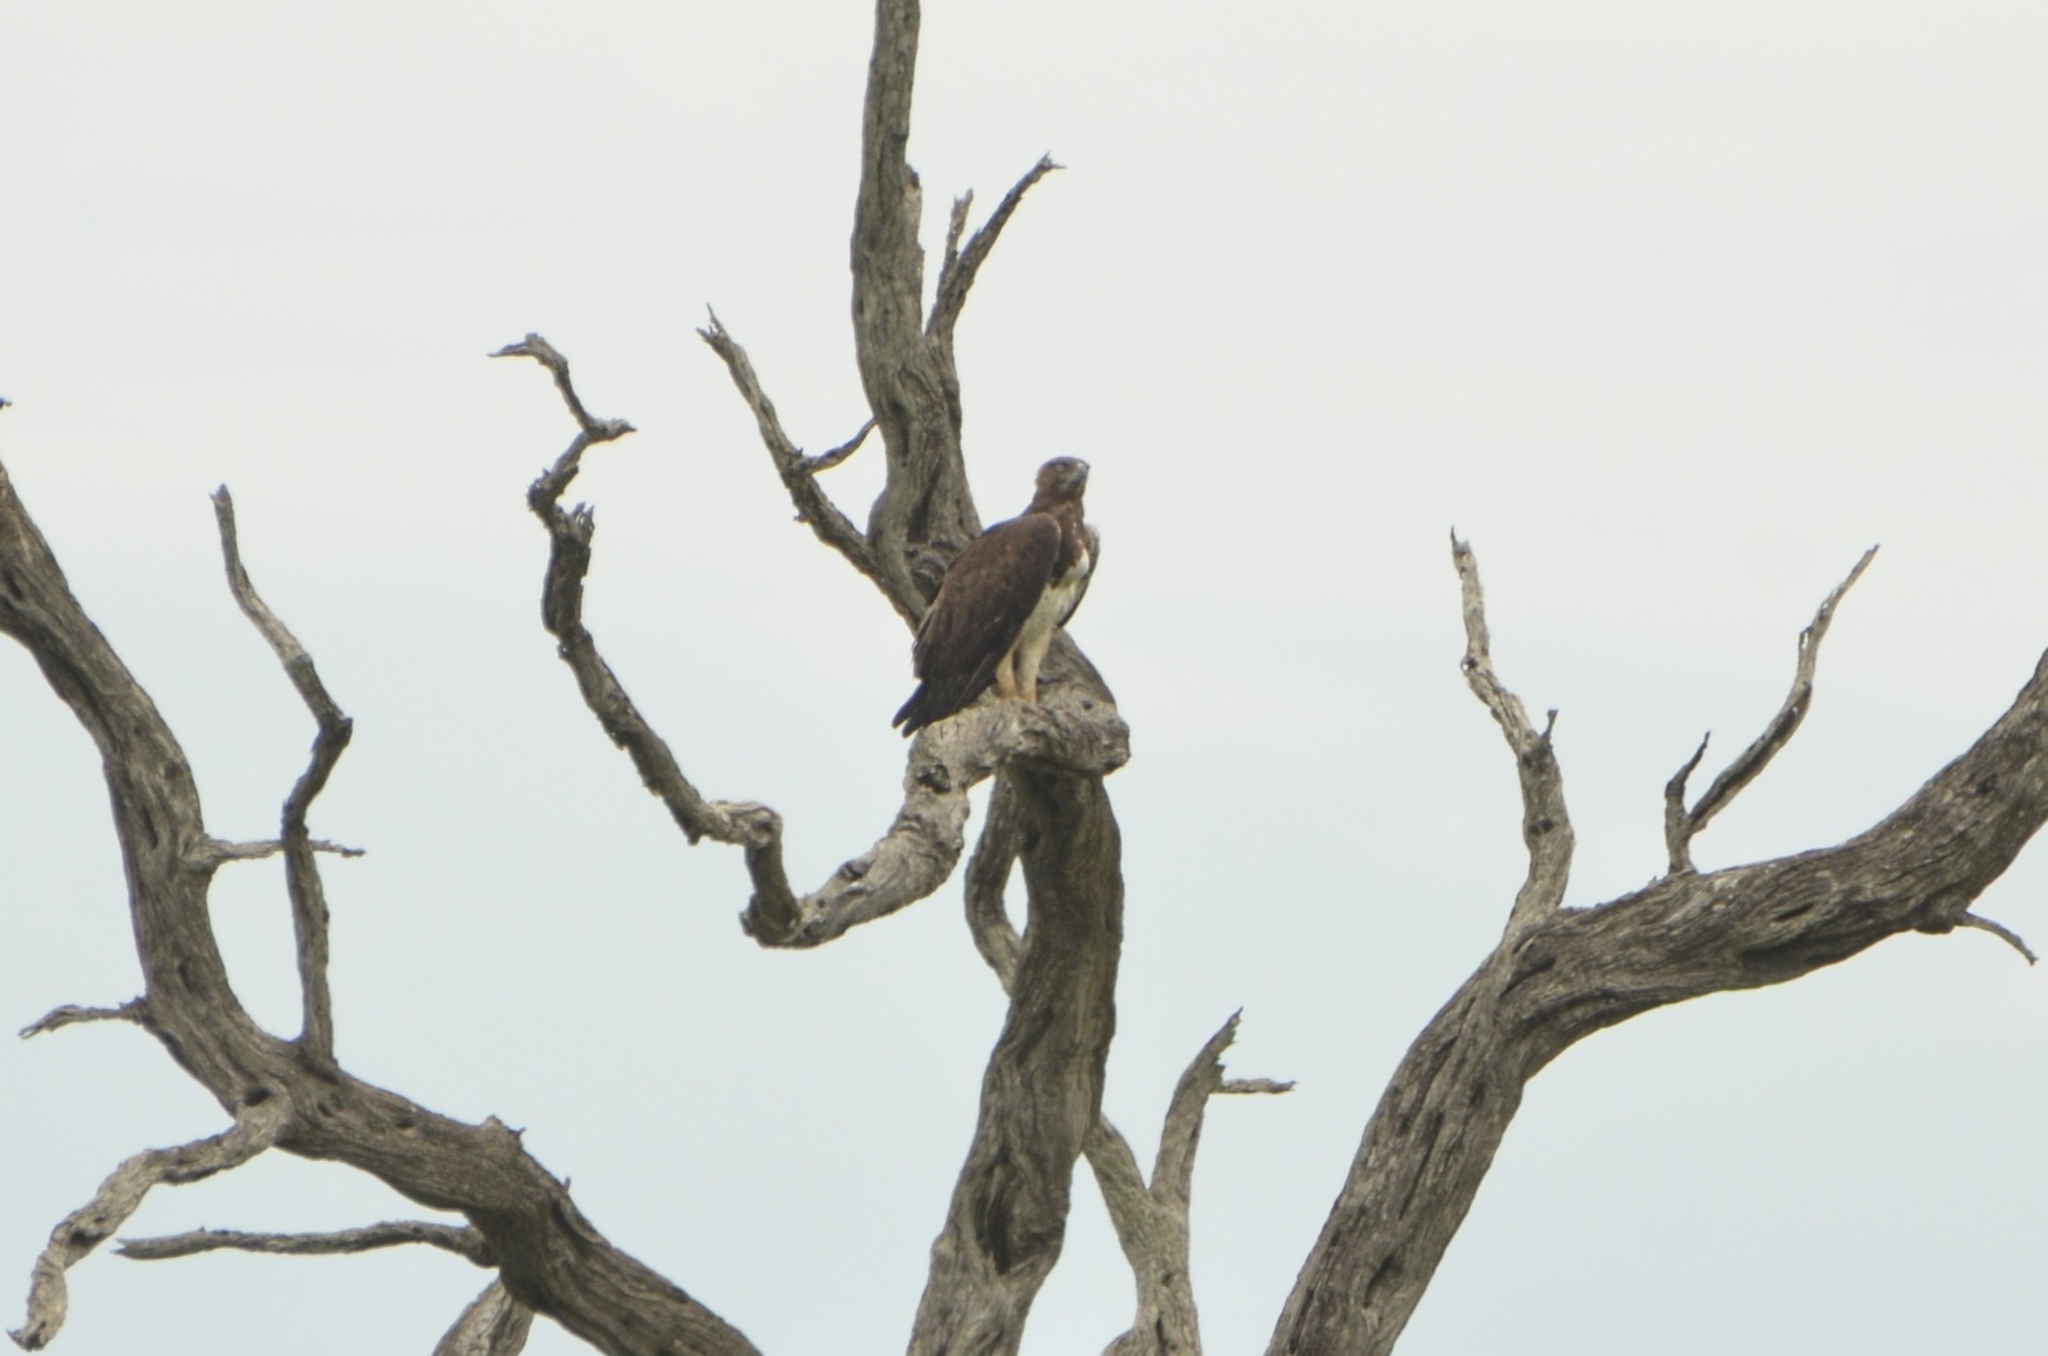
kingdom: Animalia
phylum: Chordata
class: Aves
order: Accipitriformes
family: Accipitridae
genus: Polemaetus
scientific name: Polemaetus bellicosus
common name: Martial eagle
